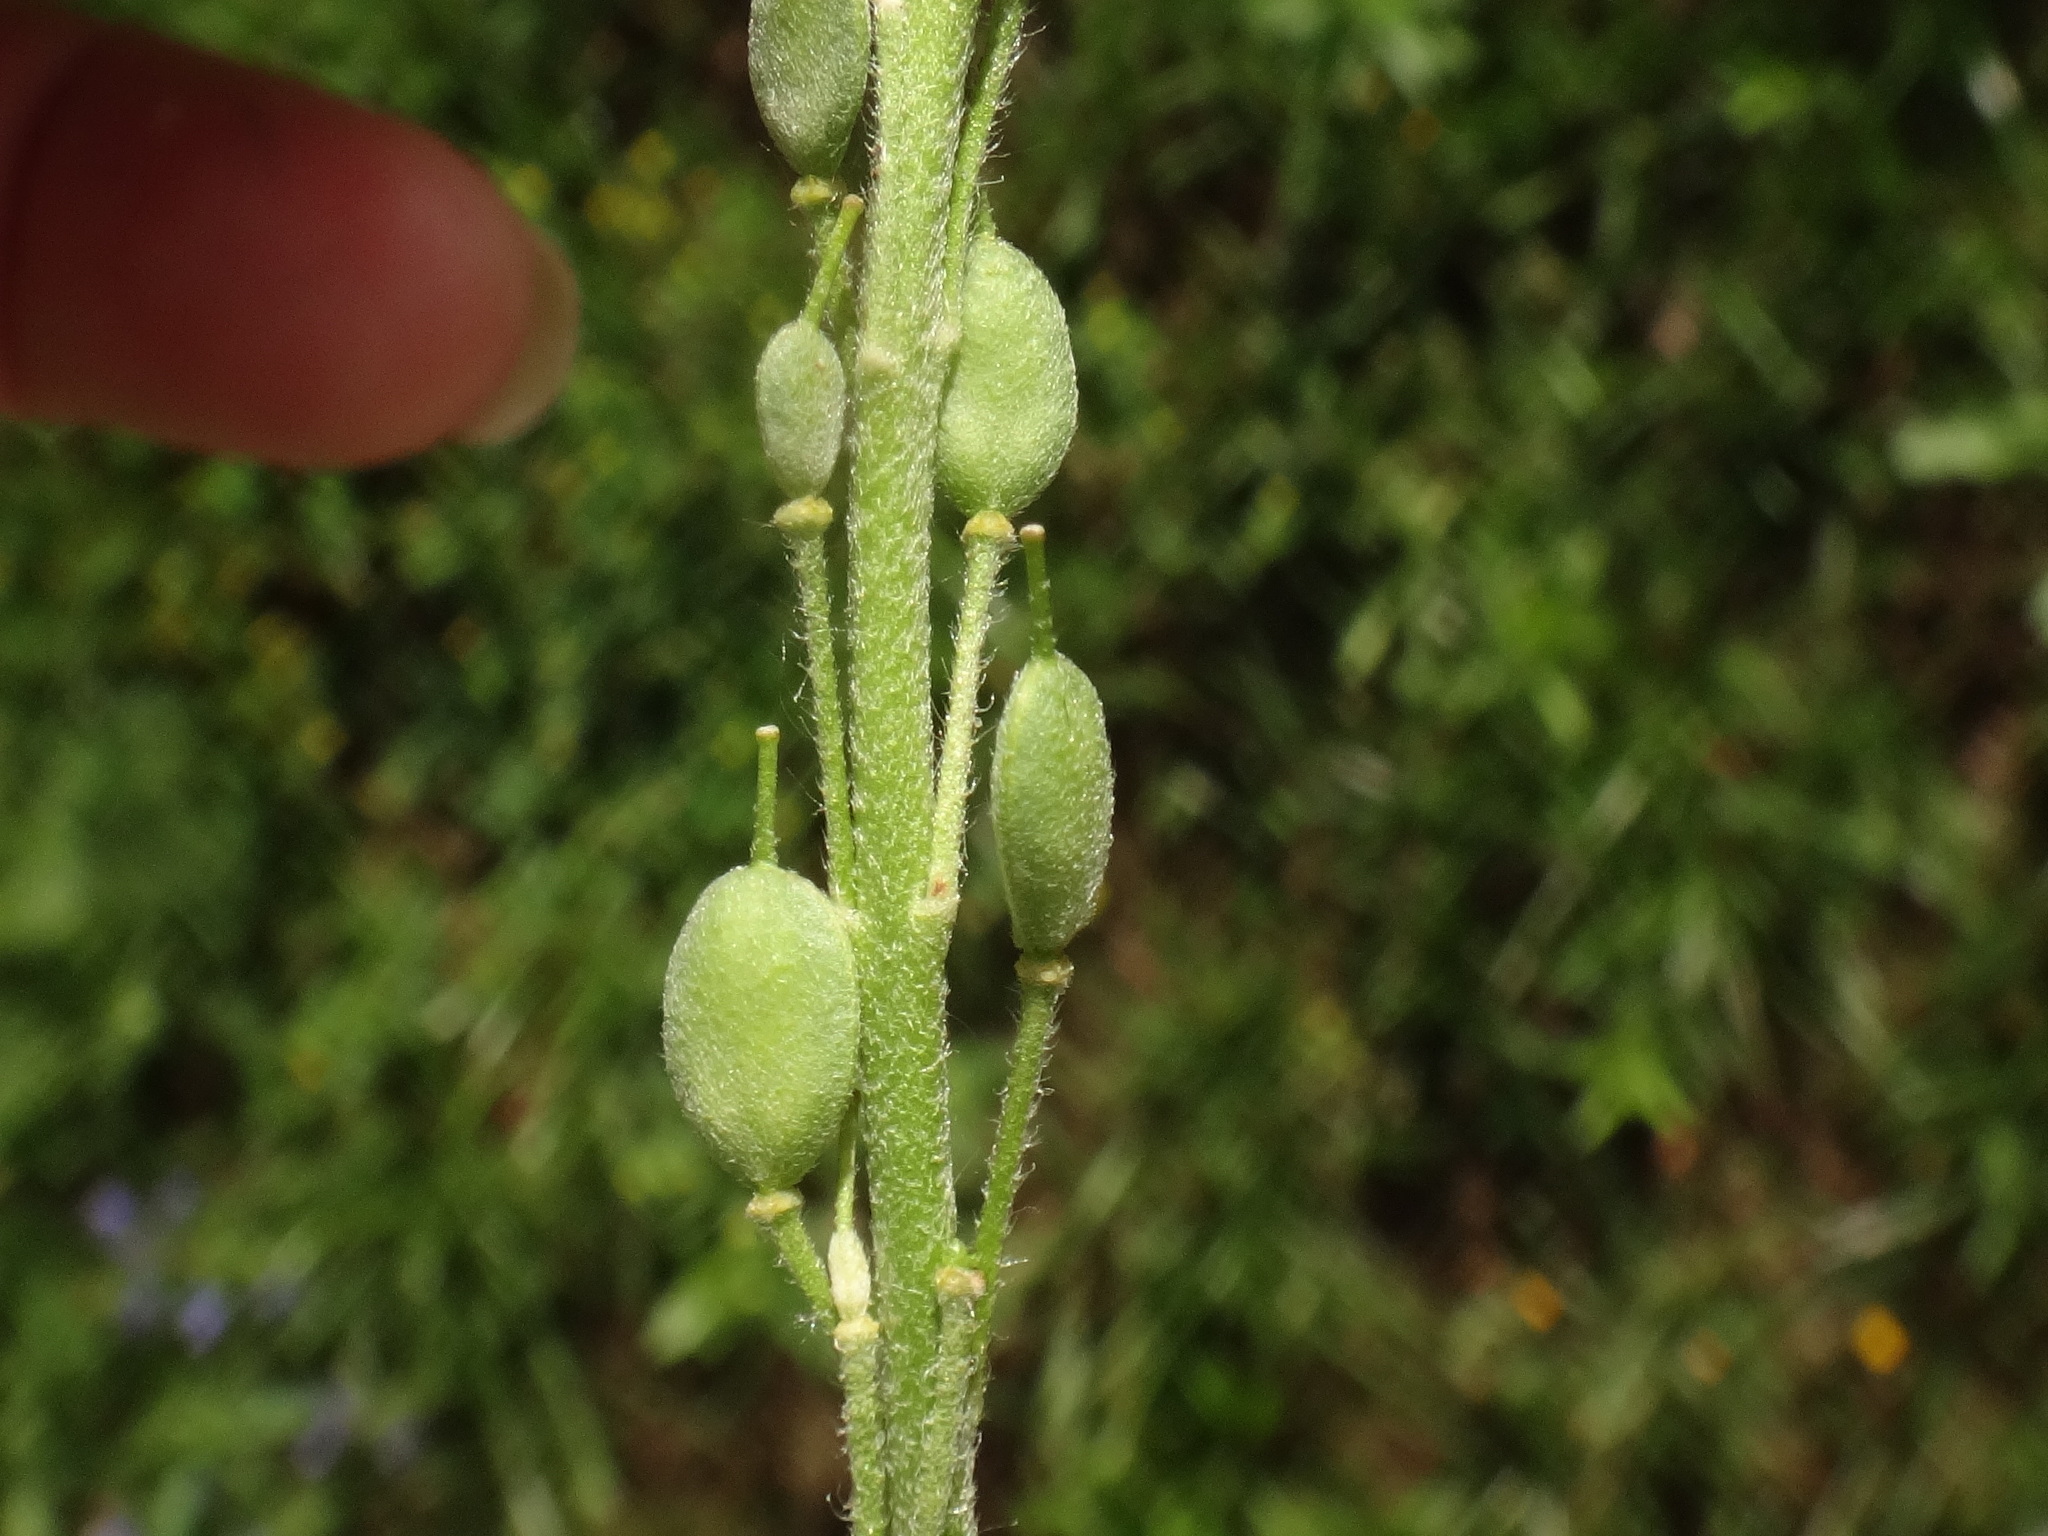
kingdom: Plantae
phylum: Tracheophyta
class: Magnoliopsida
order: Brassicales
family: Brassicaceae
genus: Berteroa
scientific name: Berteroa incana
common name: Hoary alison
